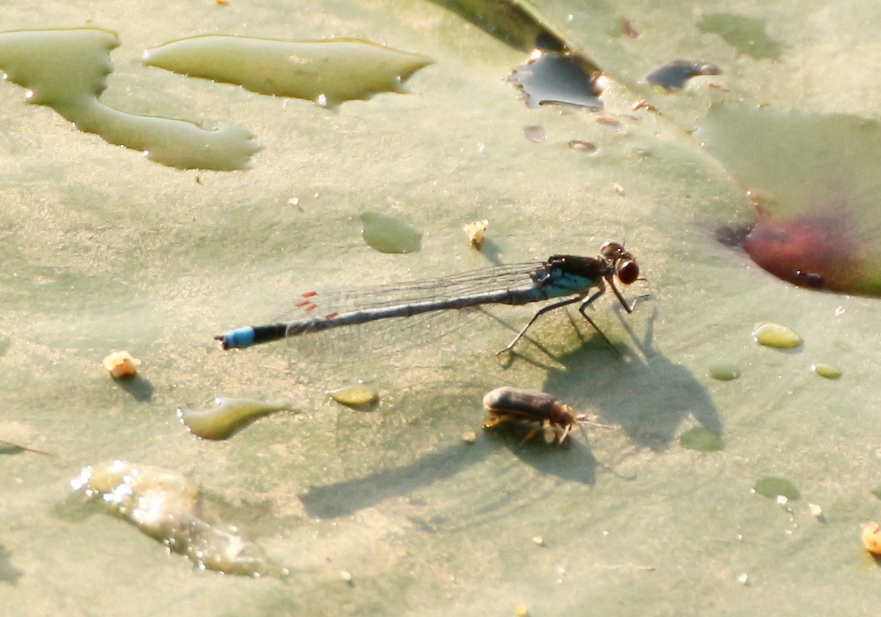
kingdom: Animalia
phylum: Arthropoda
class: Insecta
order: Odonata
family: Coenagrionidae
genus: Erythromma
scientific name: Erythromma najas
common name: Red-eyed damselfly
